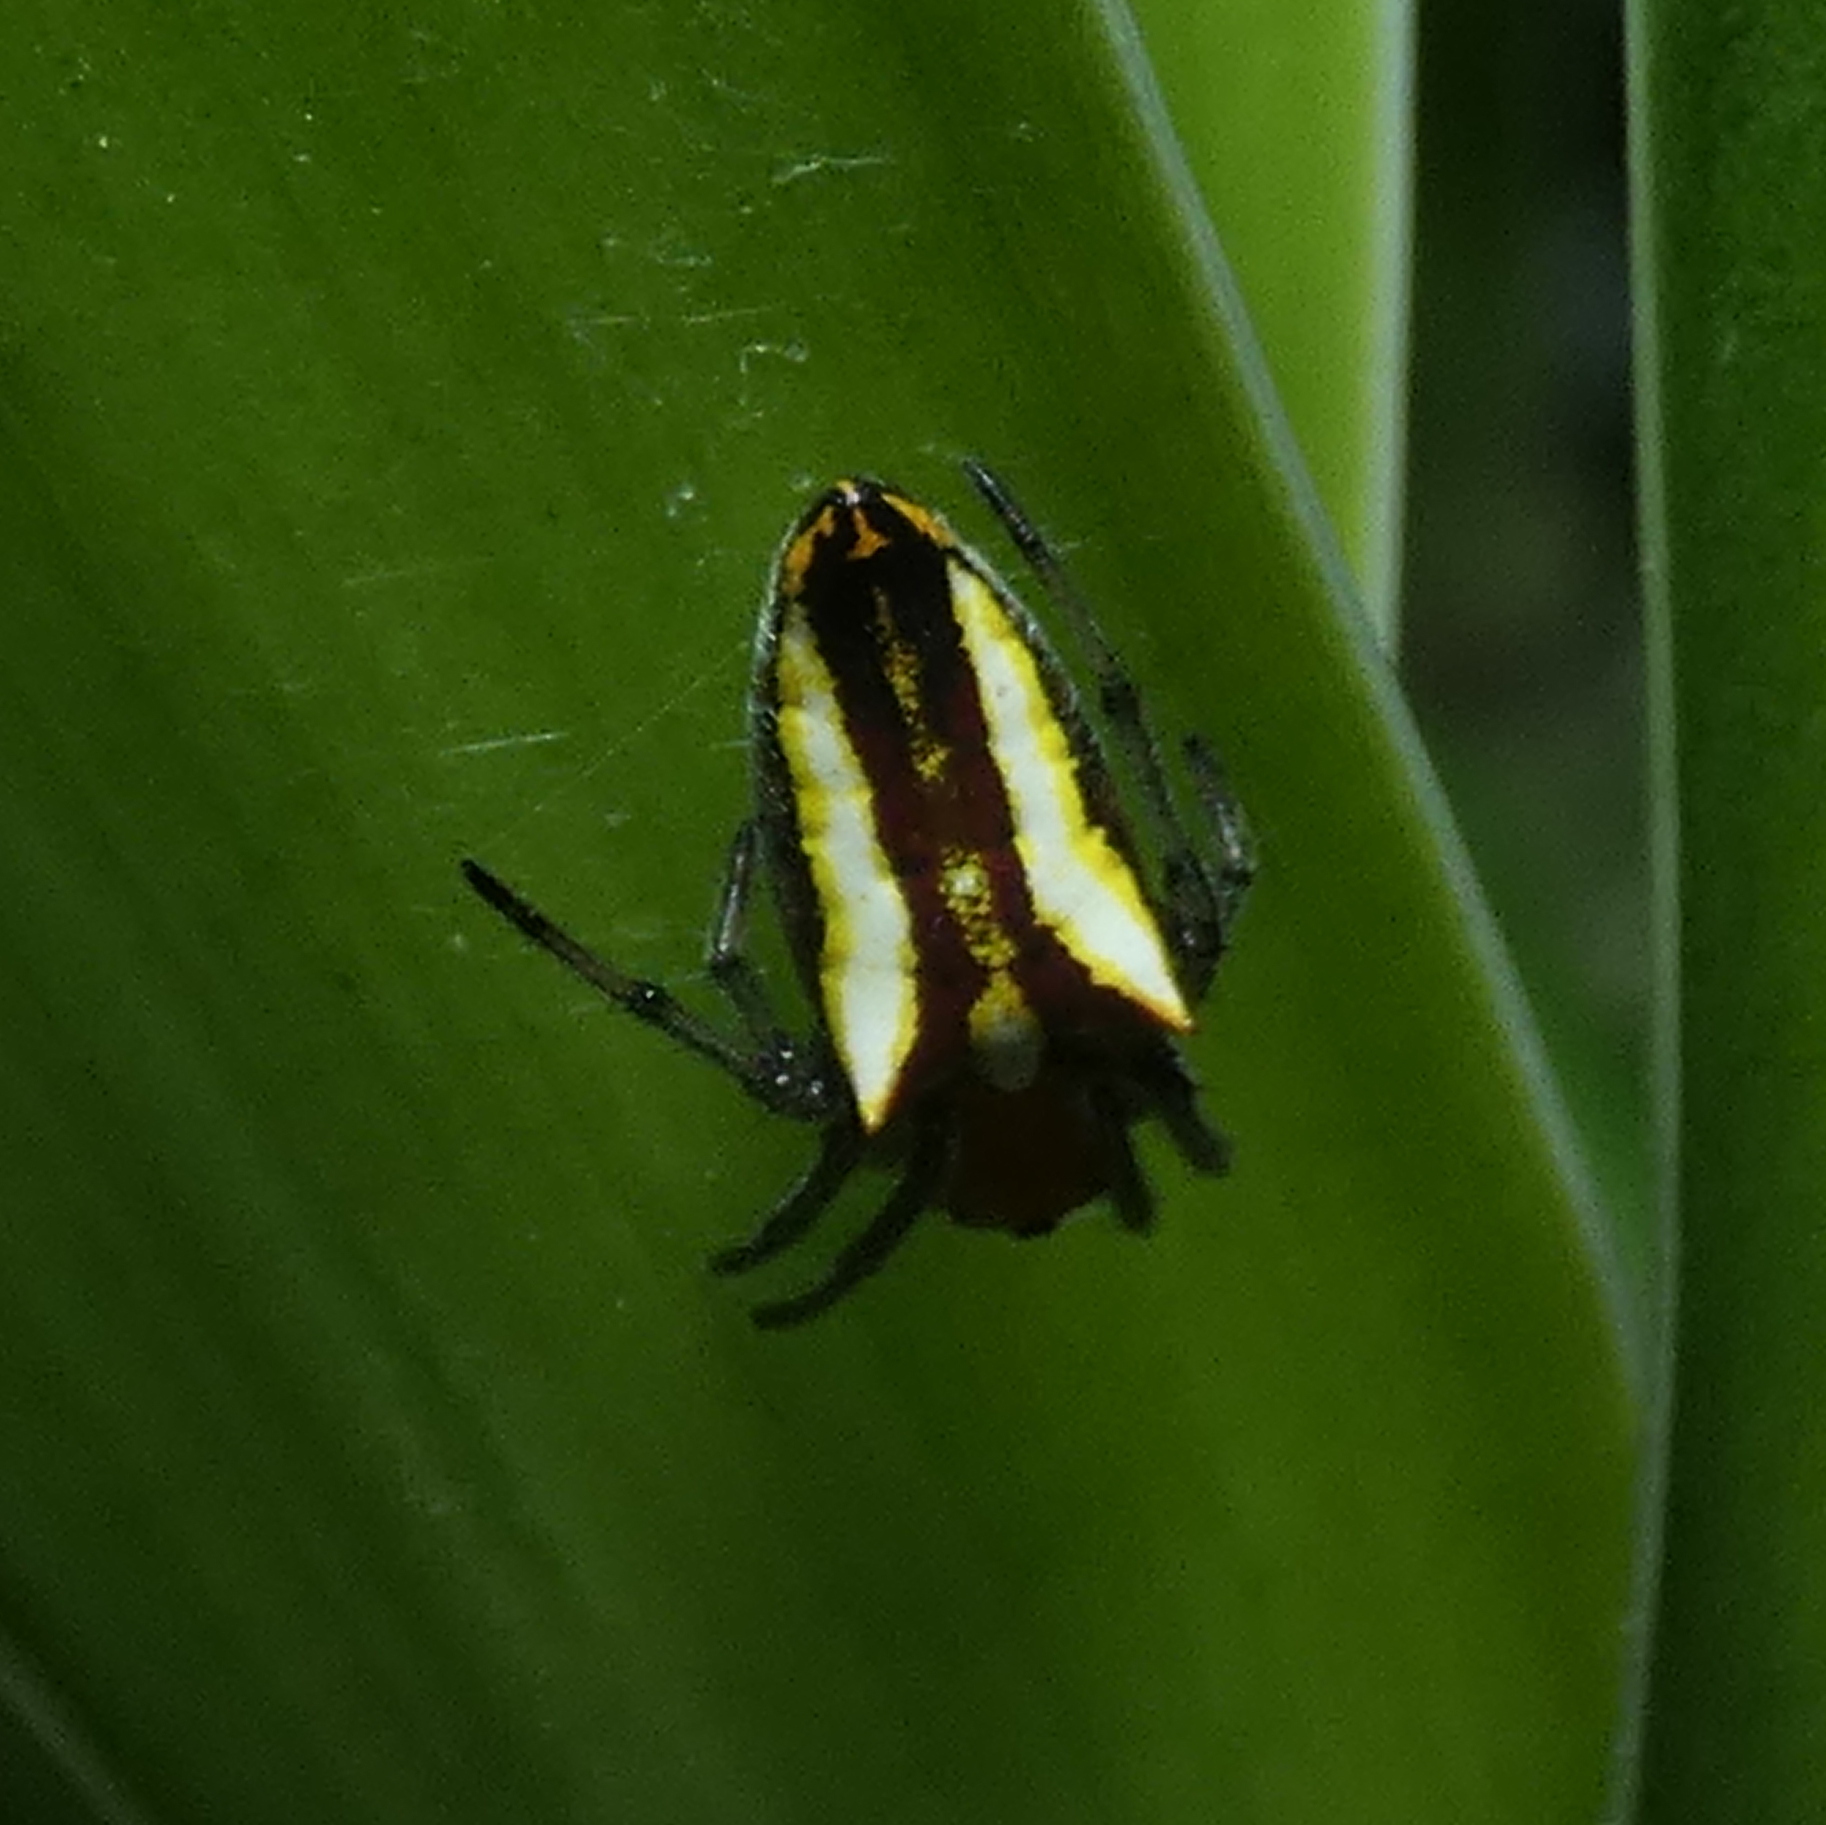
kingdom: Animalia
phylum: Arthropoda
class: Arachnida
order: Araneae
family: Araneidae
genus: Alpaida
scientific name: Alpaida bicornuta
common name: Orb weavers
